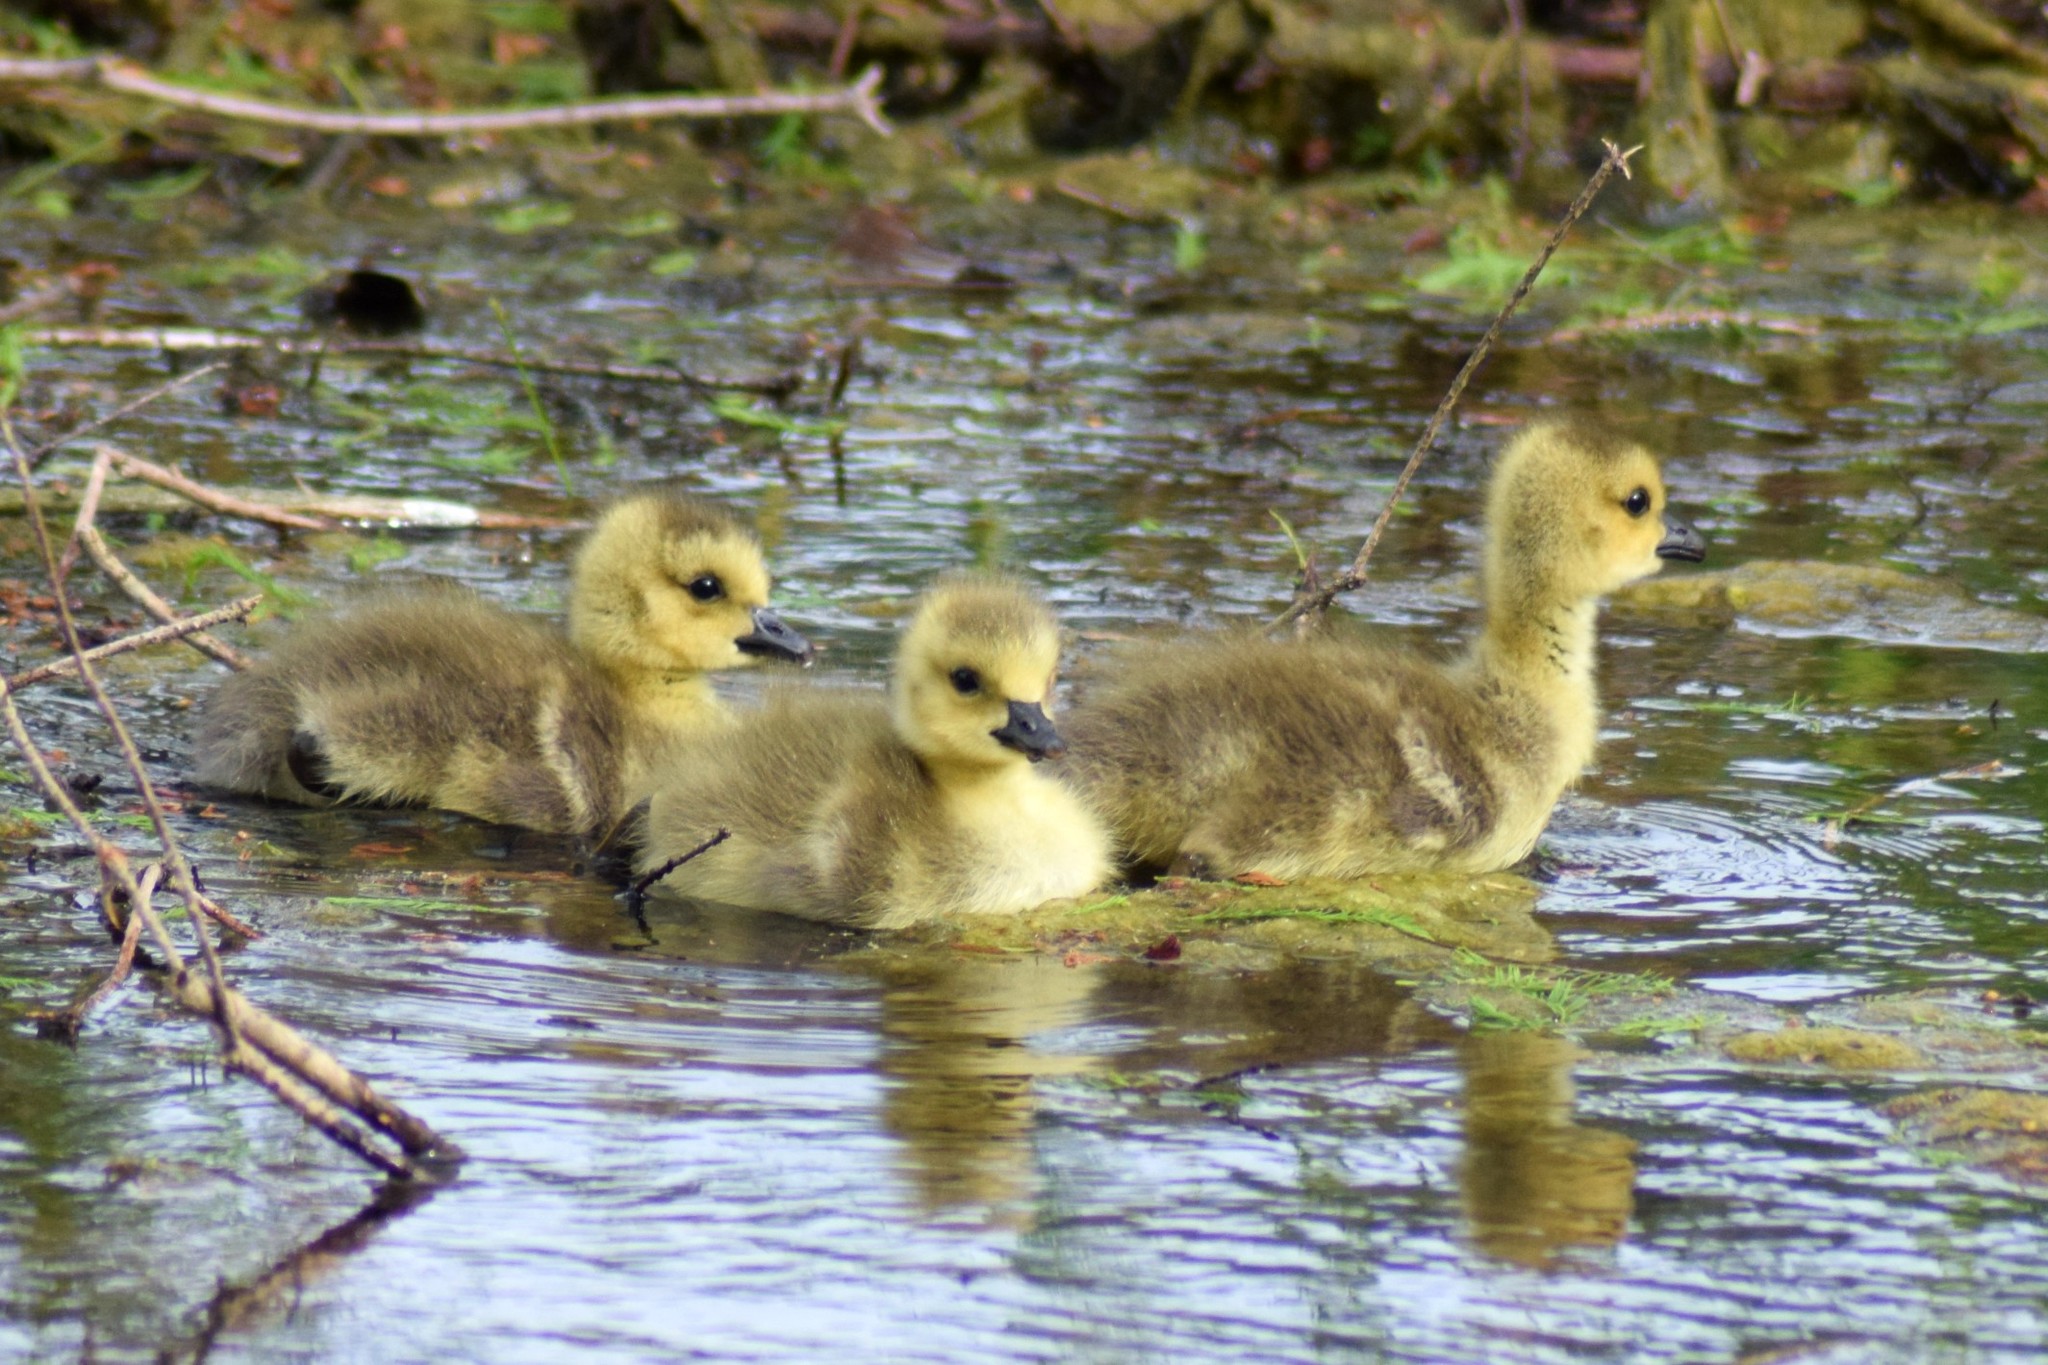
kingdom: Animalia
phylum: Chordata
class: Aves
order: Anseriformes
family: Anatidae
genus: Branta
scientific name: Branta canadensis
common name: Canada goose
